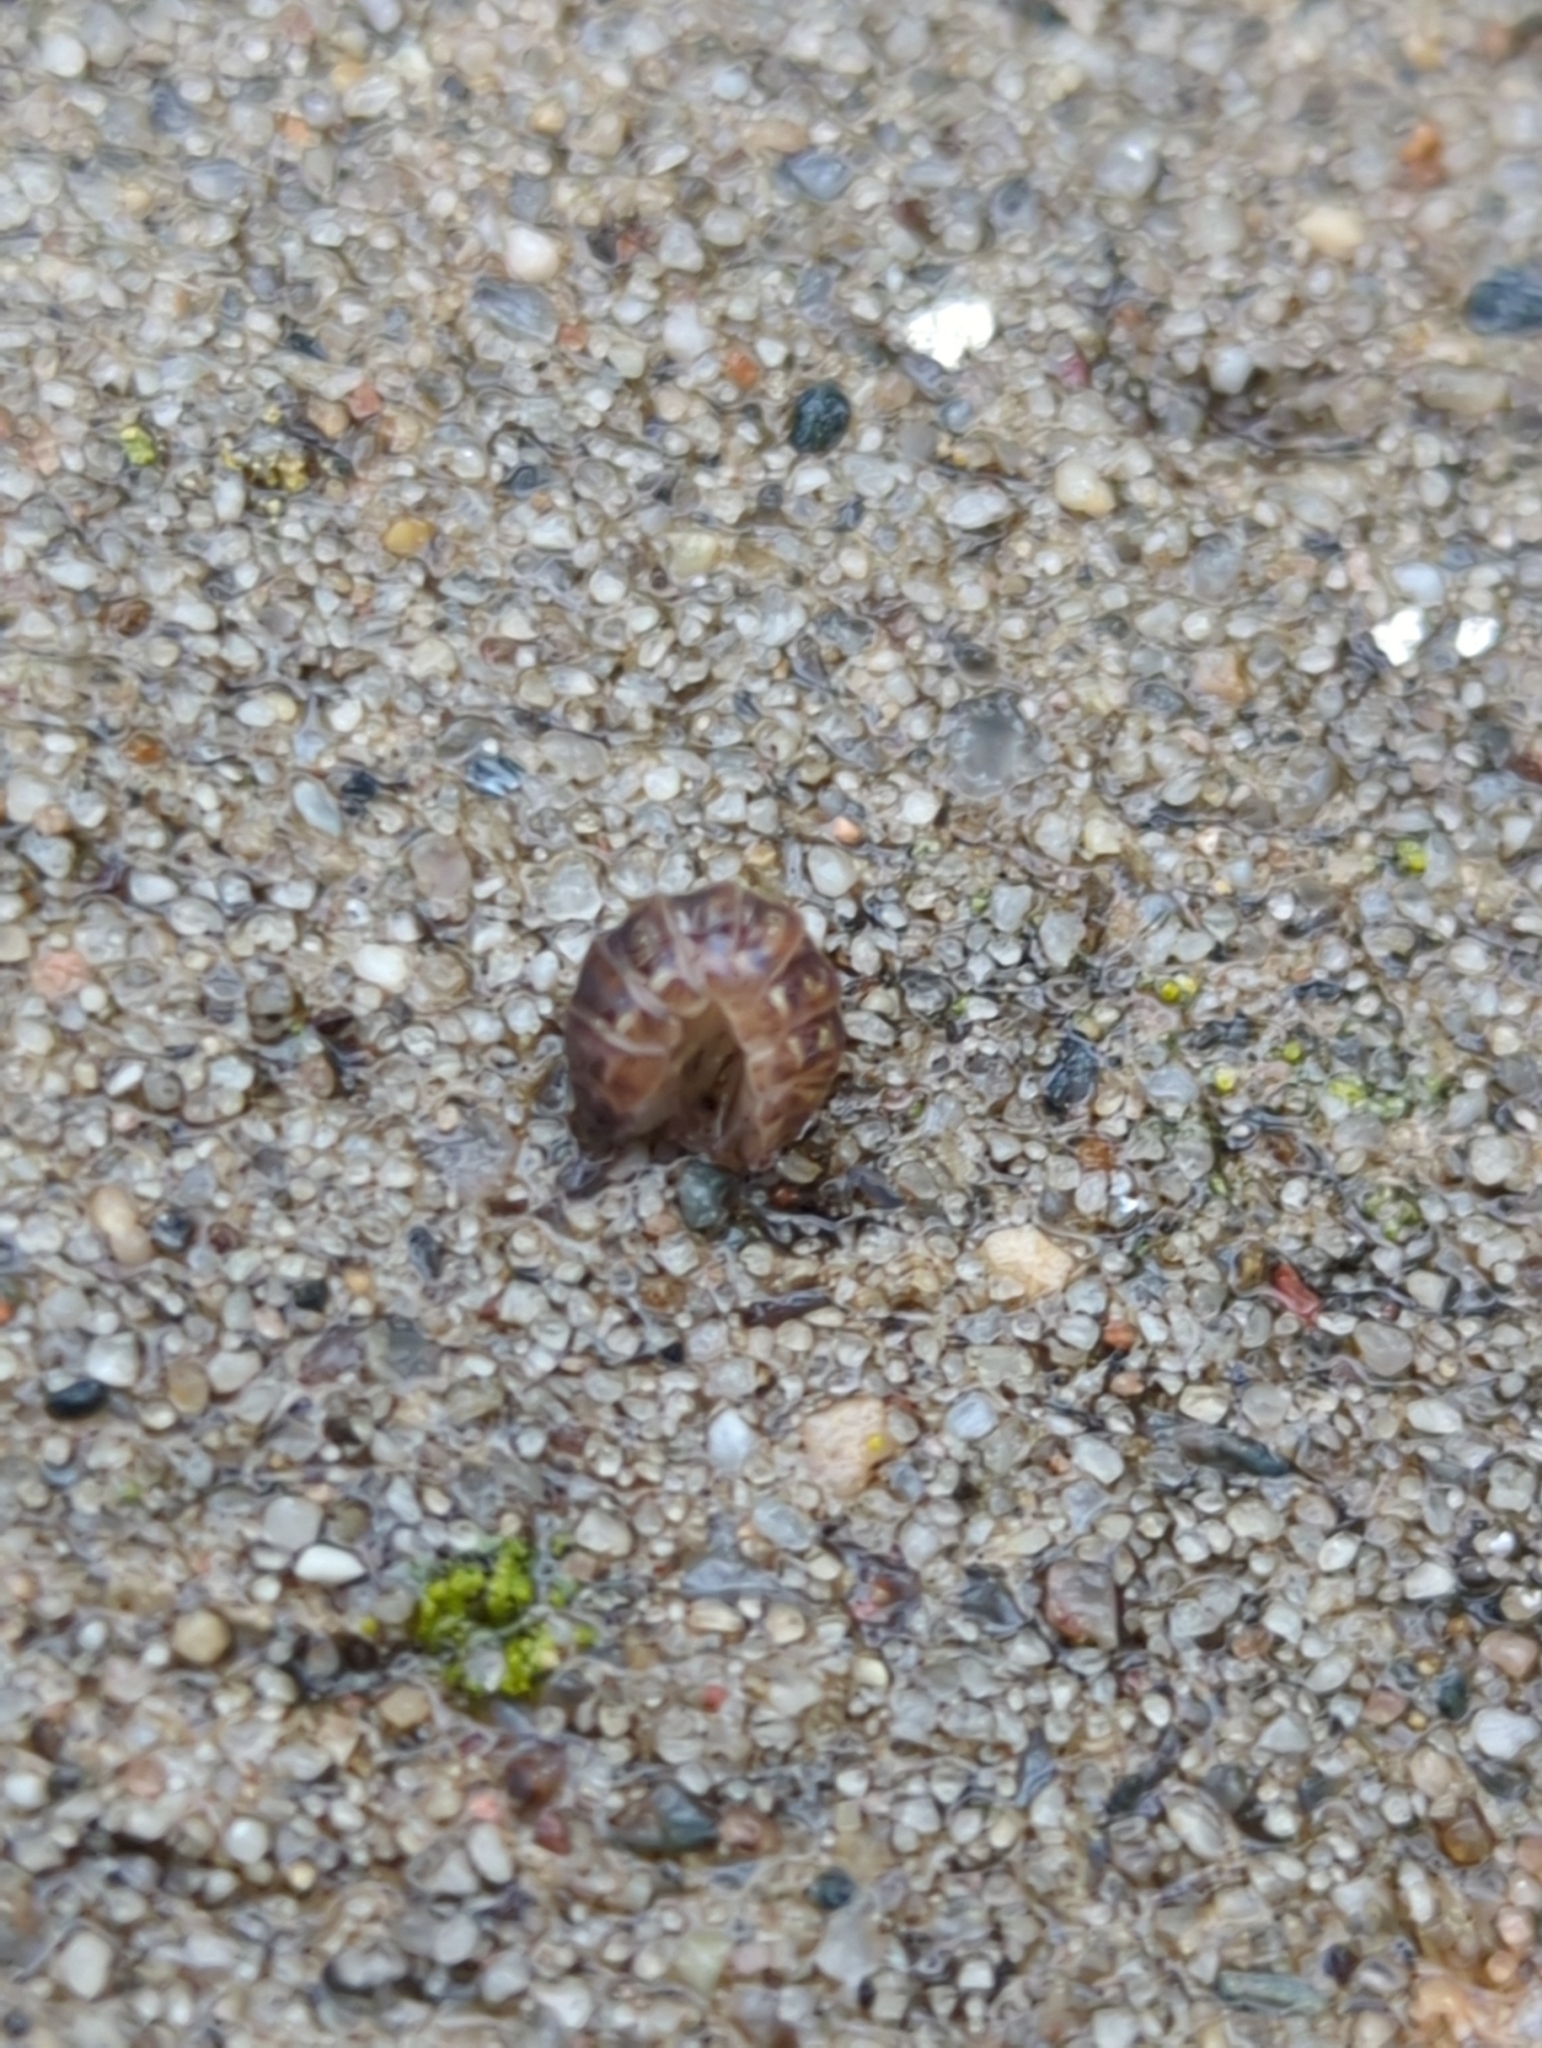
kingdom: Animalia
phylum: Arthropoda
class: Malacostraca
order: Isopoda
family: Armadillidiidae
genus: Armadillidium
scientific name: Armadillidium vulgare
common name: Common pill woodlouse
